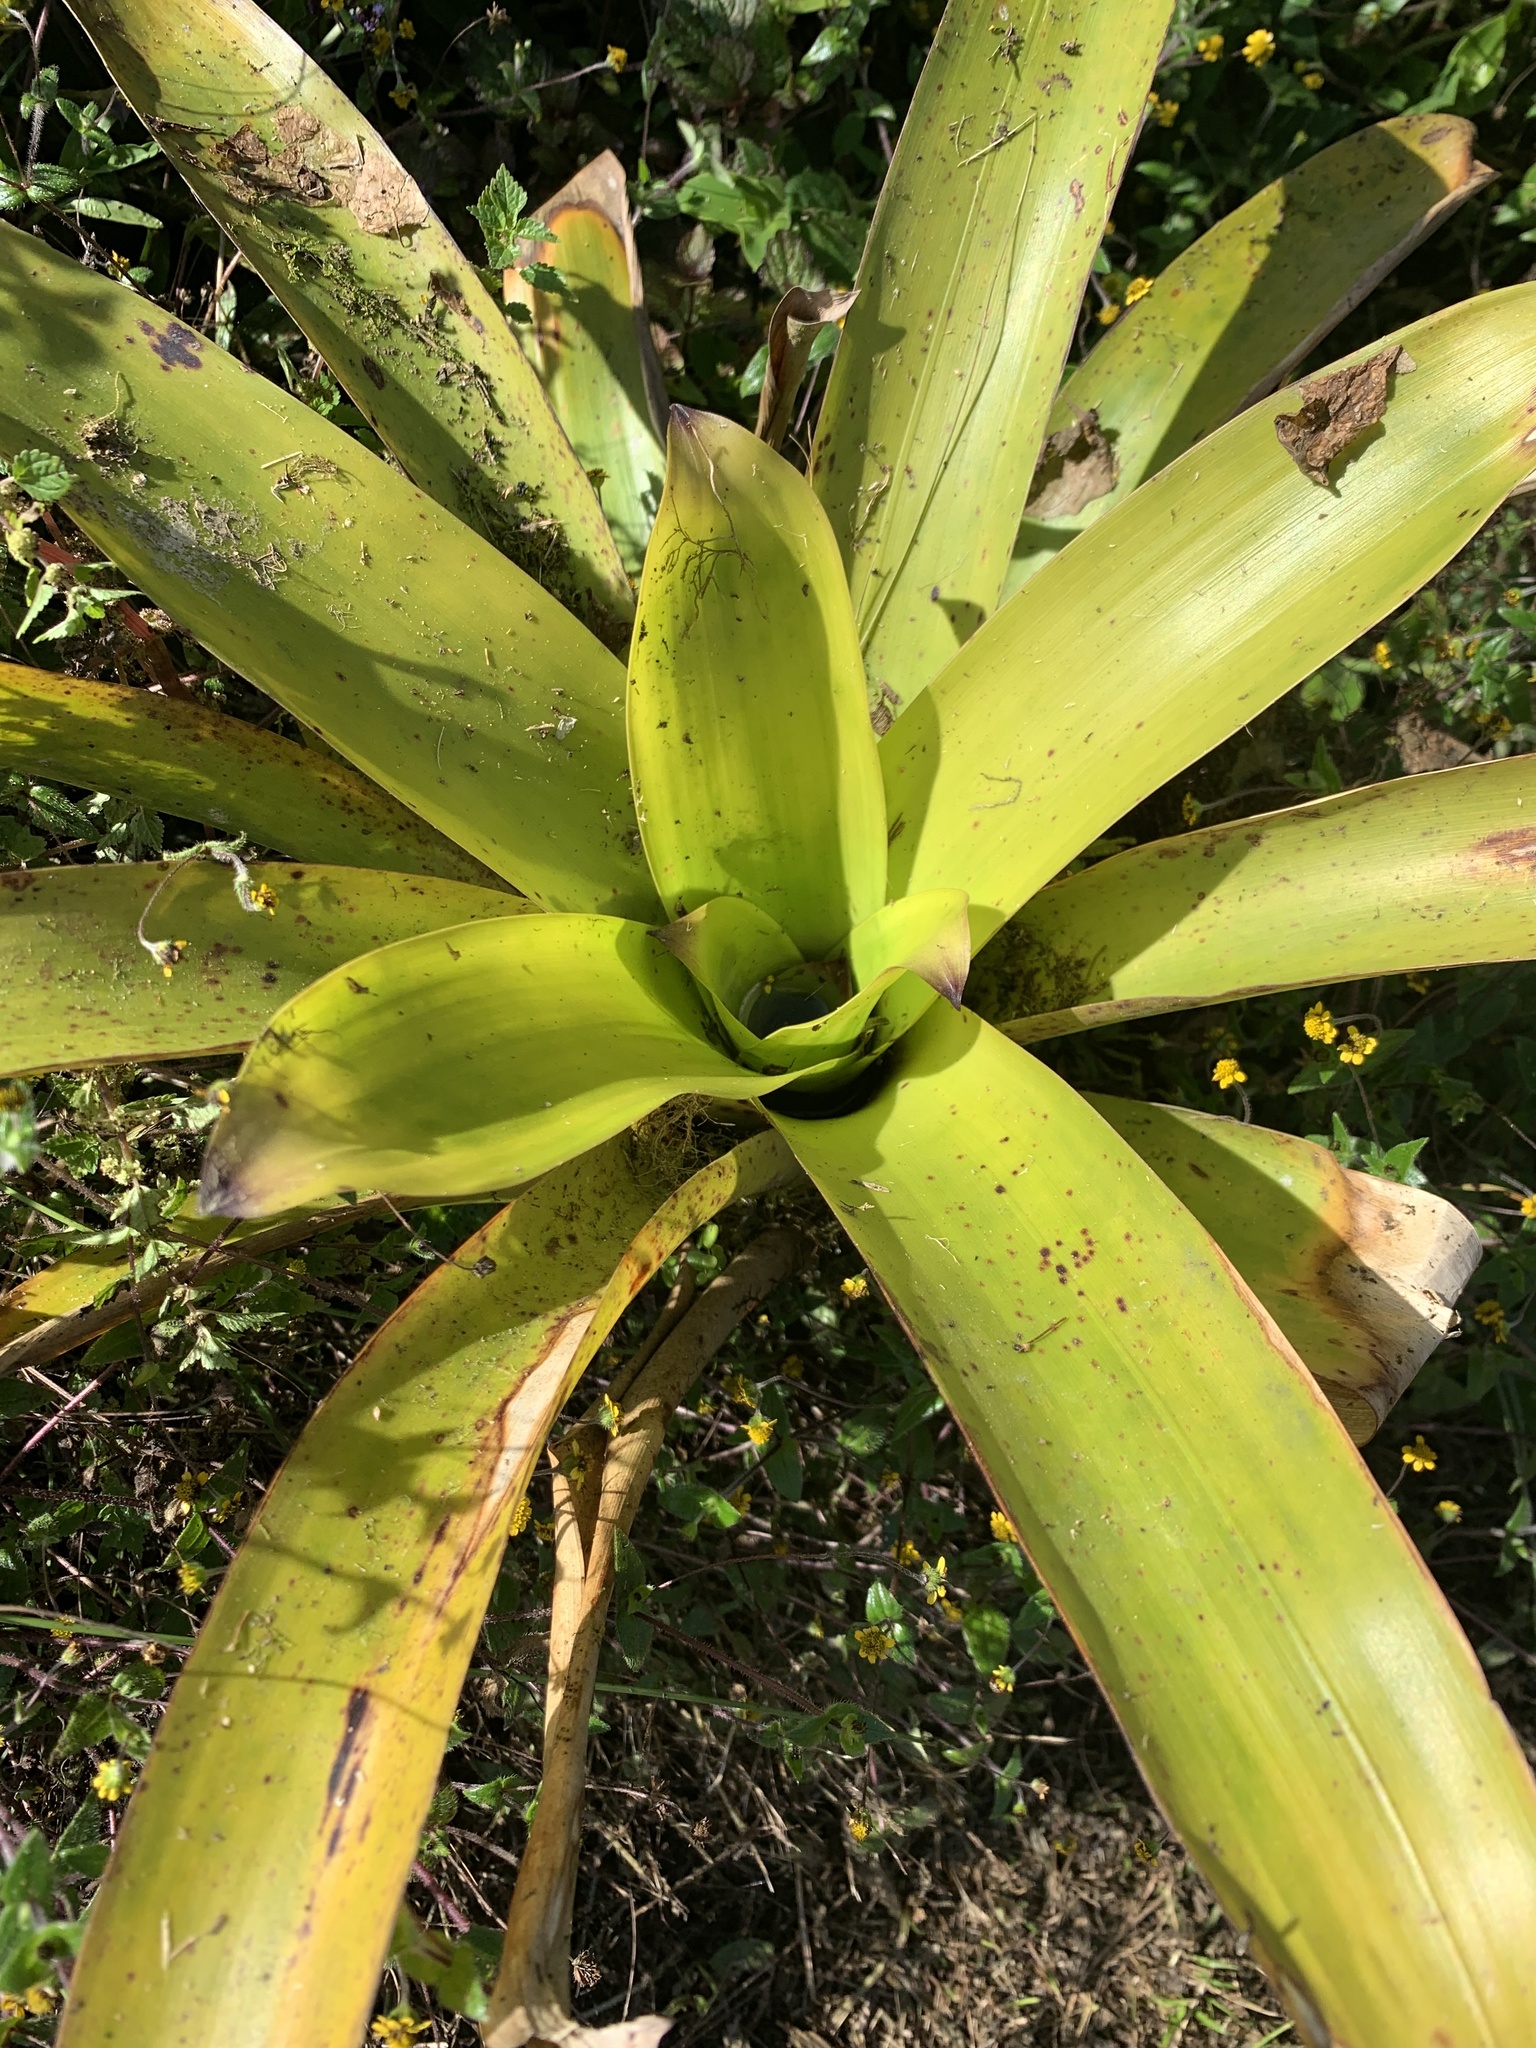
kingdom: Plantae
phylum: Tracheophyta
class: Liliopsida
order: Poales
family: Bromeliaceae
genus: Racinaea
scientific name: Racinaea insularis
